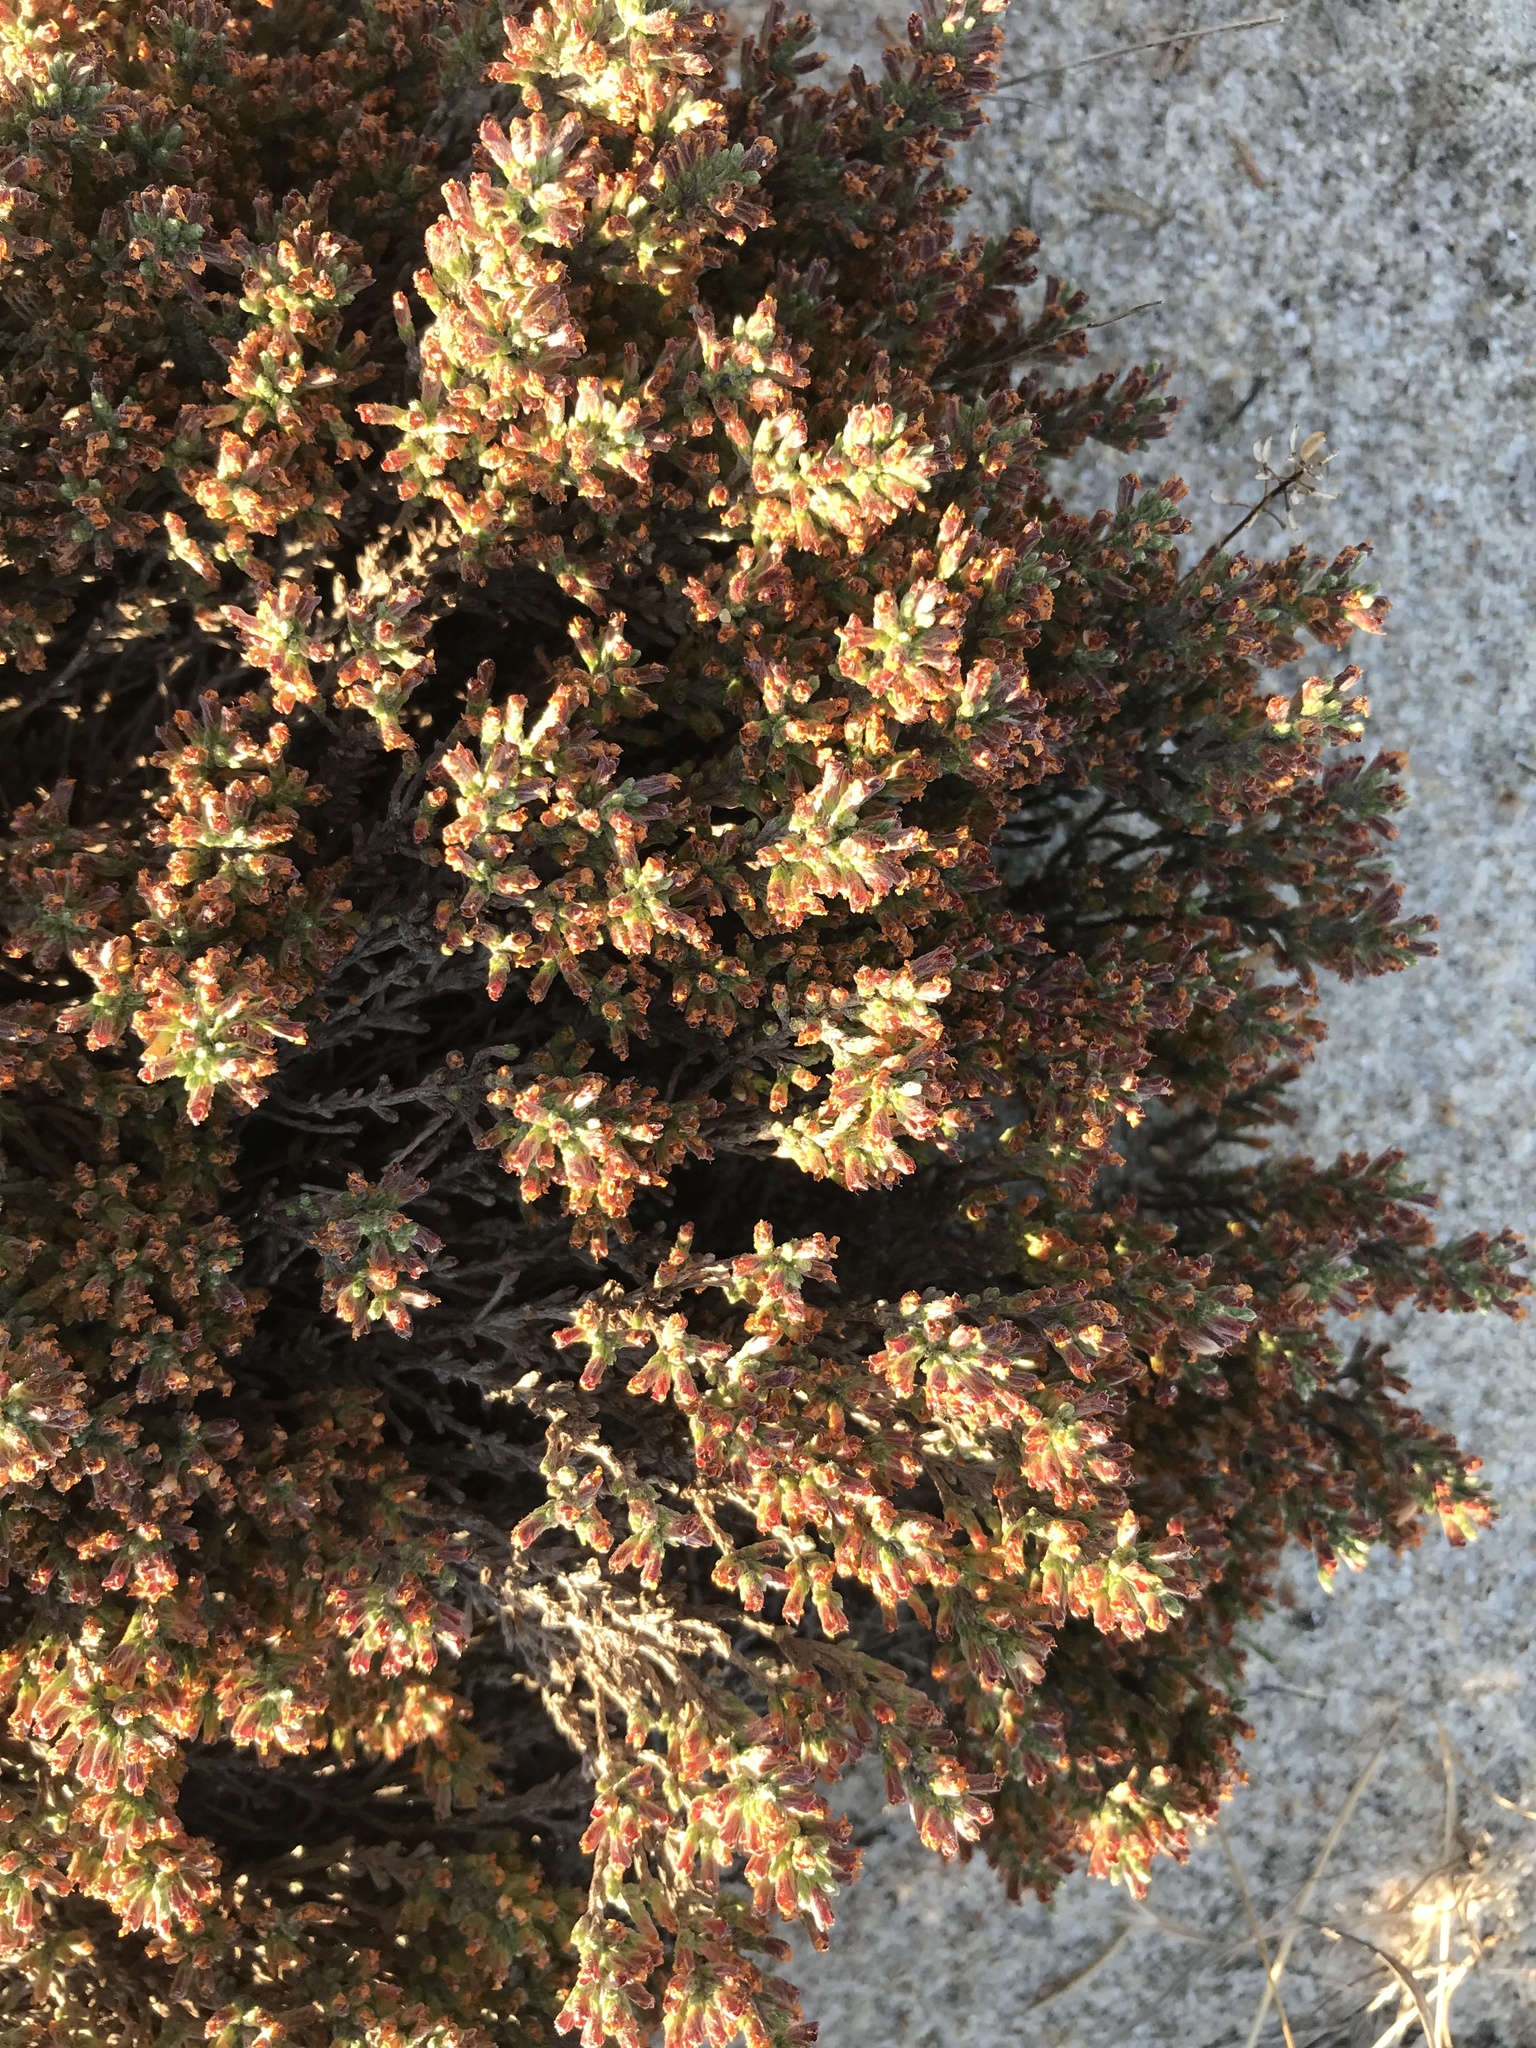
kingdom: Plantae
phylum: Tracheophyta
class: Magnoliopsida
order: Malvales
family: Cistaceae
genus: Hudsonia
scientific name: Hudsonia tomentosa
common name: Beach-heath
